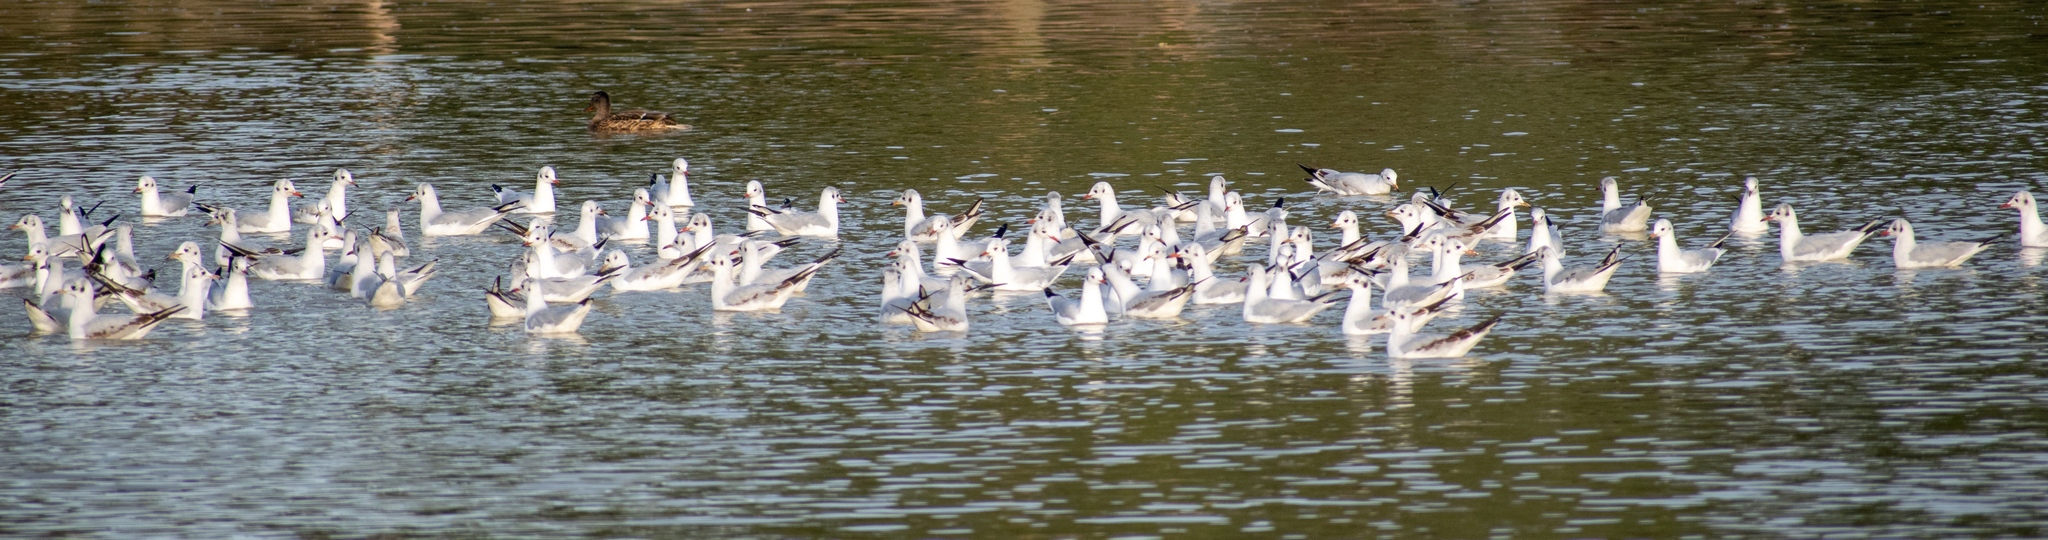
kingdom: Animalia
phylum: Chordata
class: Aves
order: Charadriiformes
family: Laridae
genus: Chroicocephalus
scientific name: Chroicocephalus ridibundus
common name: Black-headed gull
